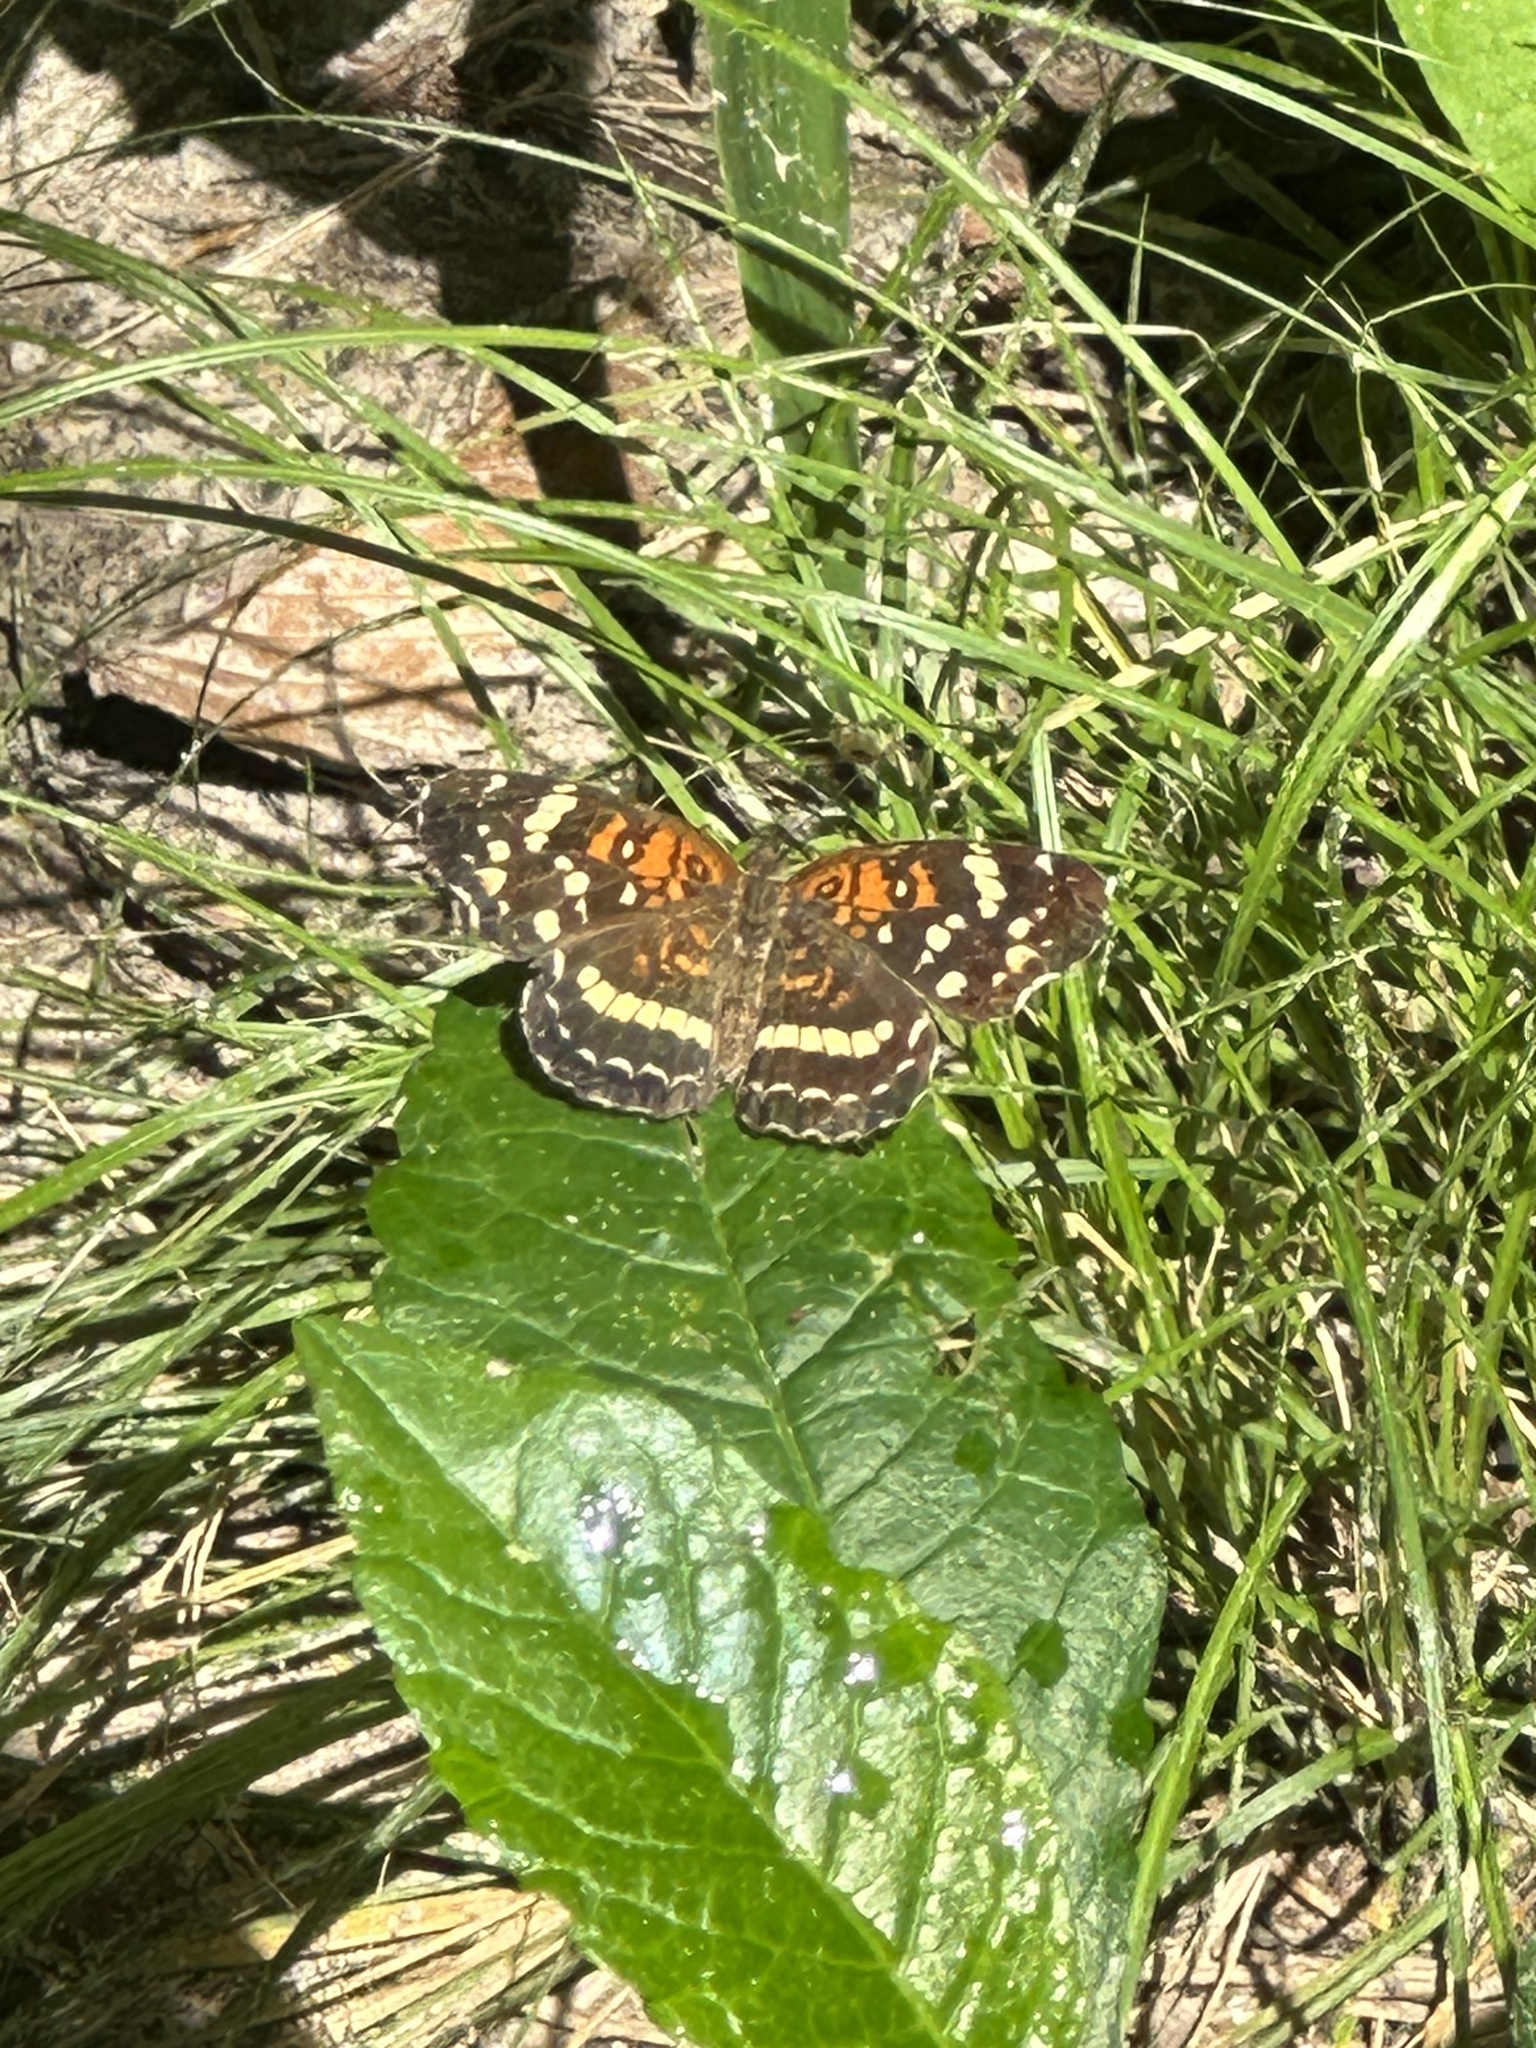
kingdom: Animalia
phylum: Arthropoda
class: Insecta
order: Lepidoptera
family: Nymphalidae
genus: Anthanassa
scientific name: Anthanassa taxana
